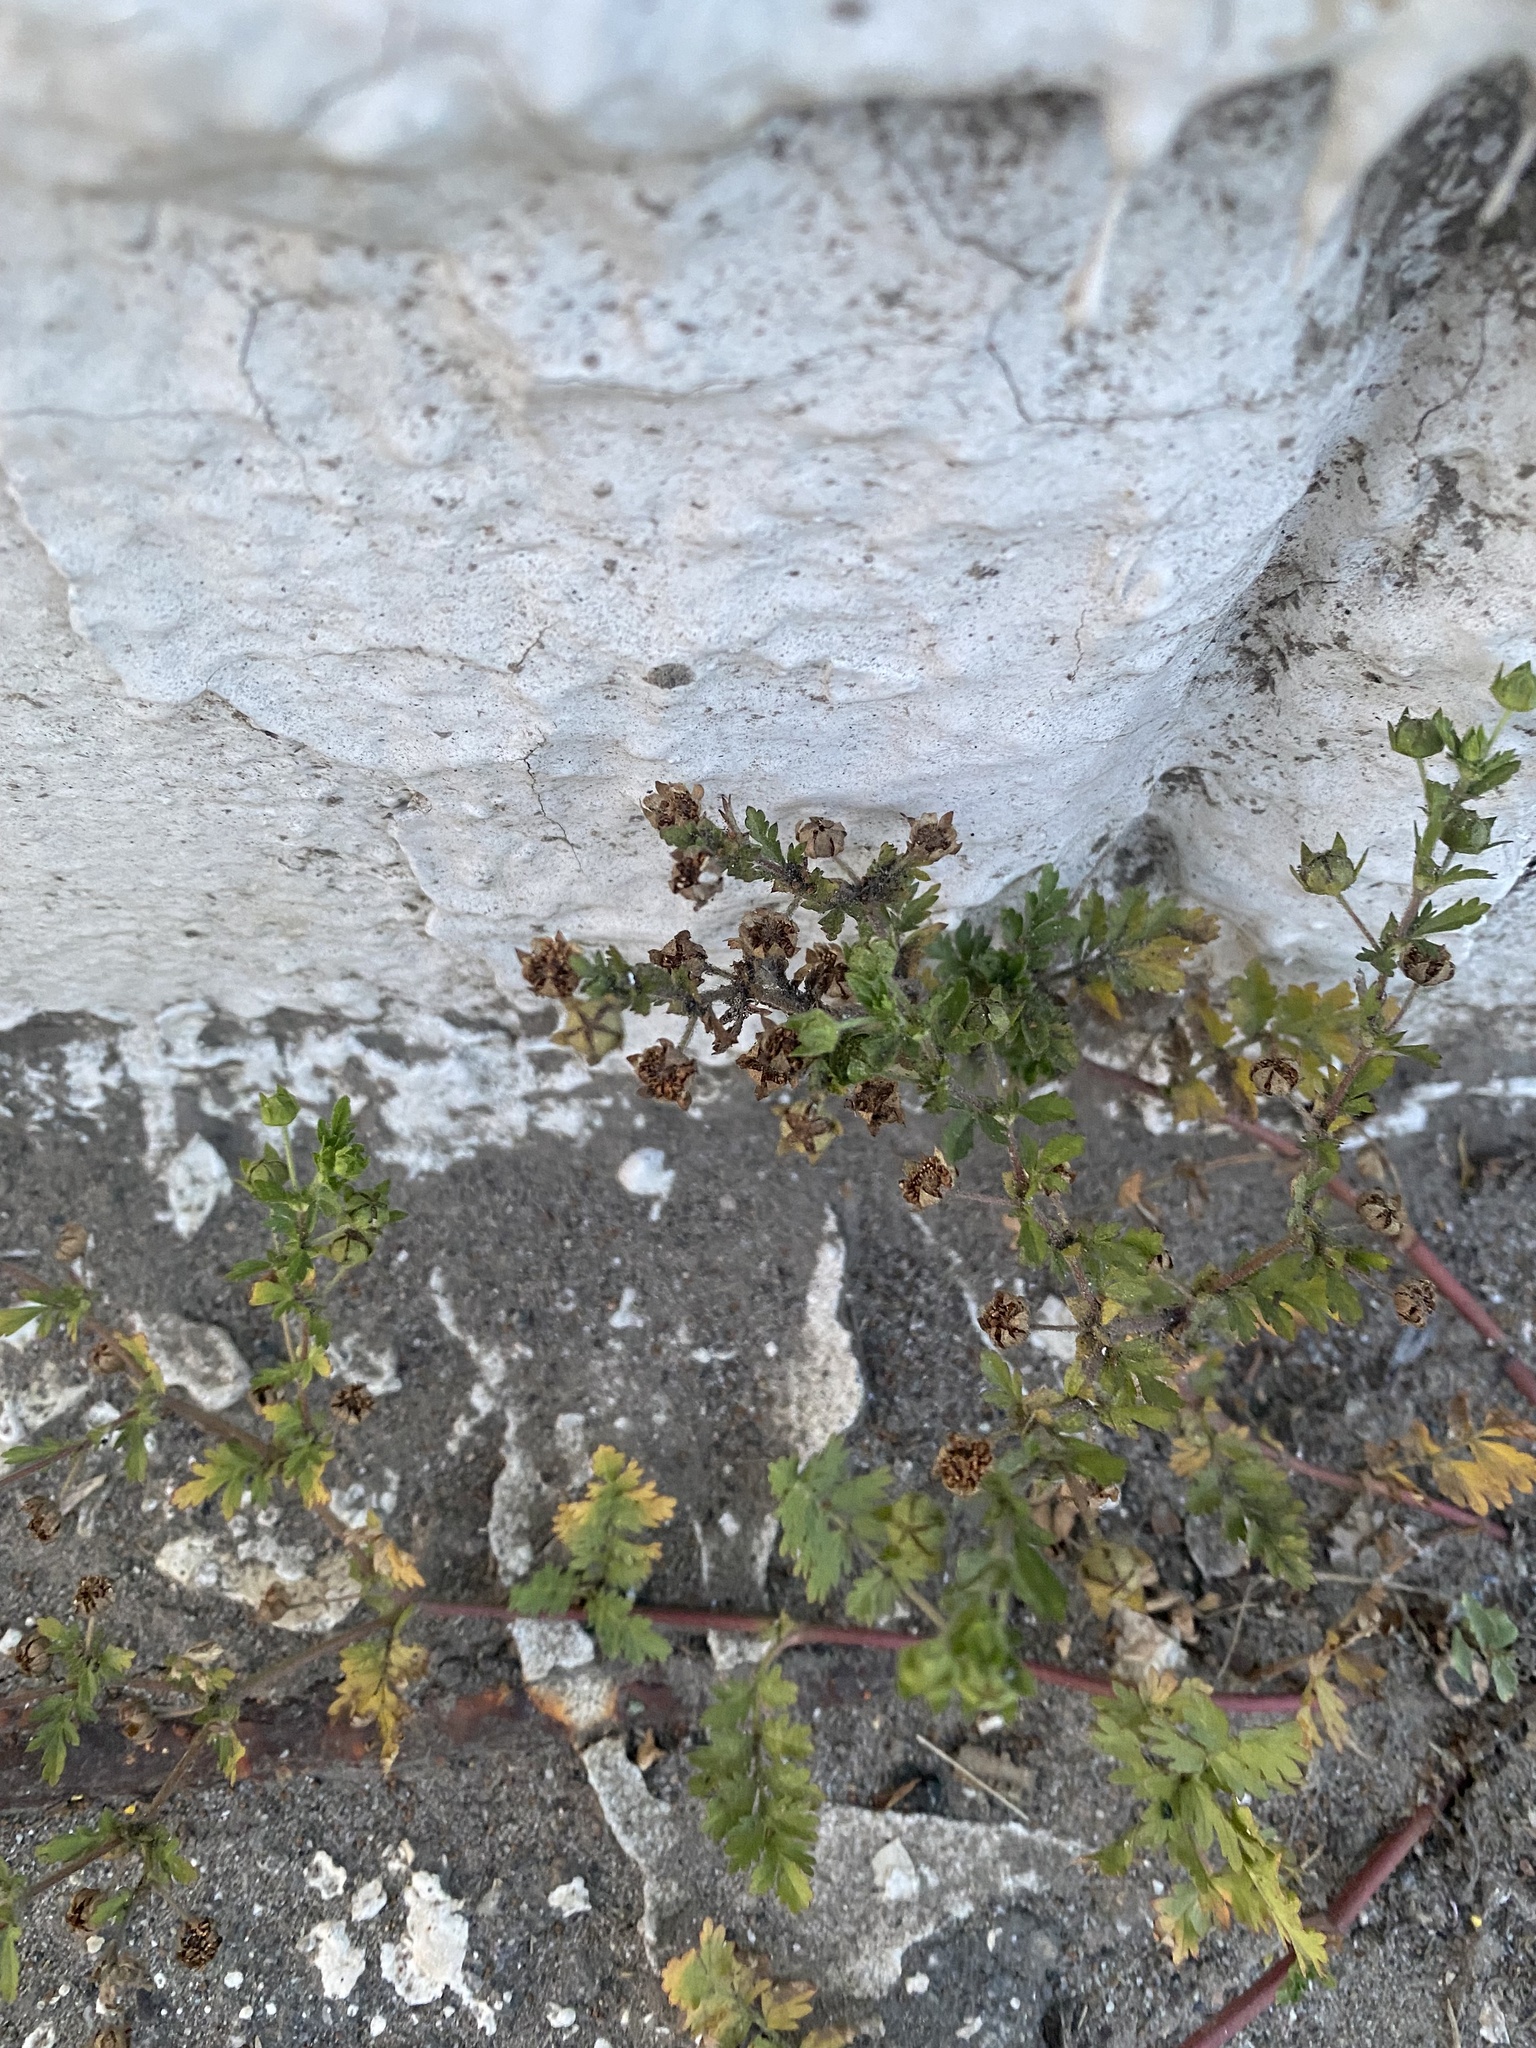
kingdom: Plantae
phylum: Tracheophyta
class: Magnoliopsida
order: Rosales
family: Rosaceae
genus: Potentilla
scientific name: Potentilla supina
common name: Prostrate cinquefoil
